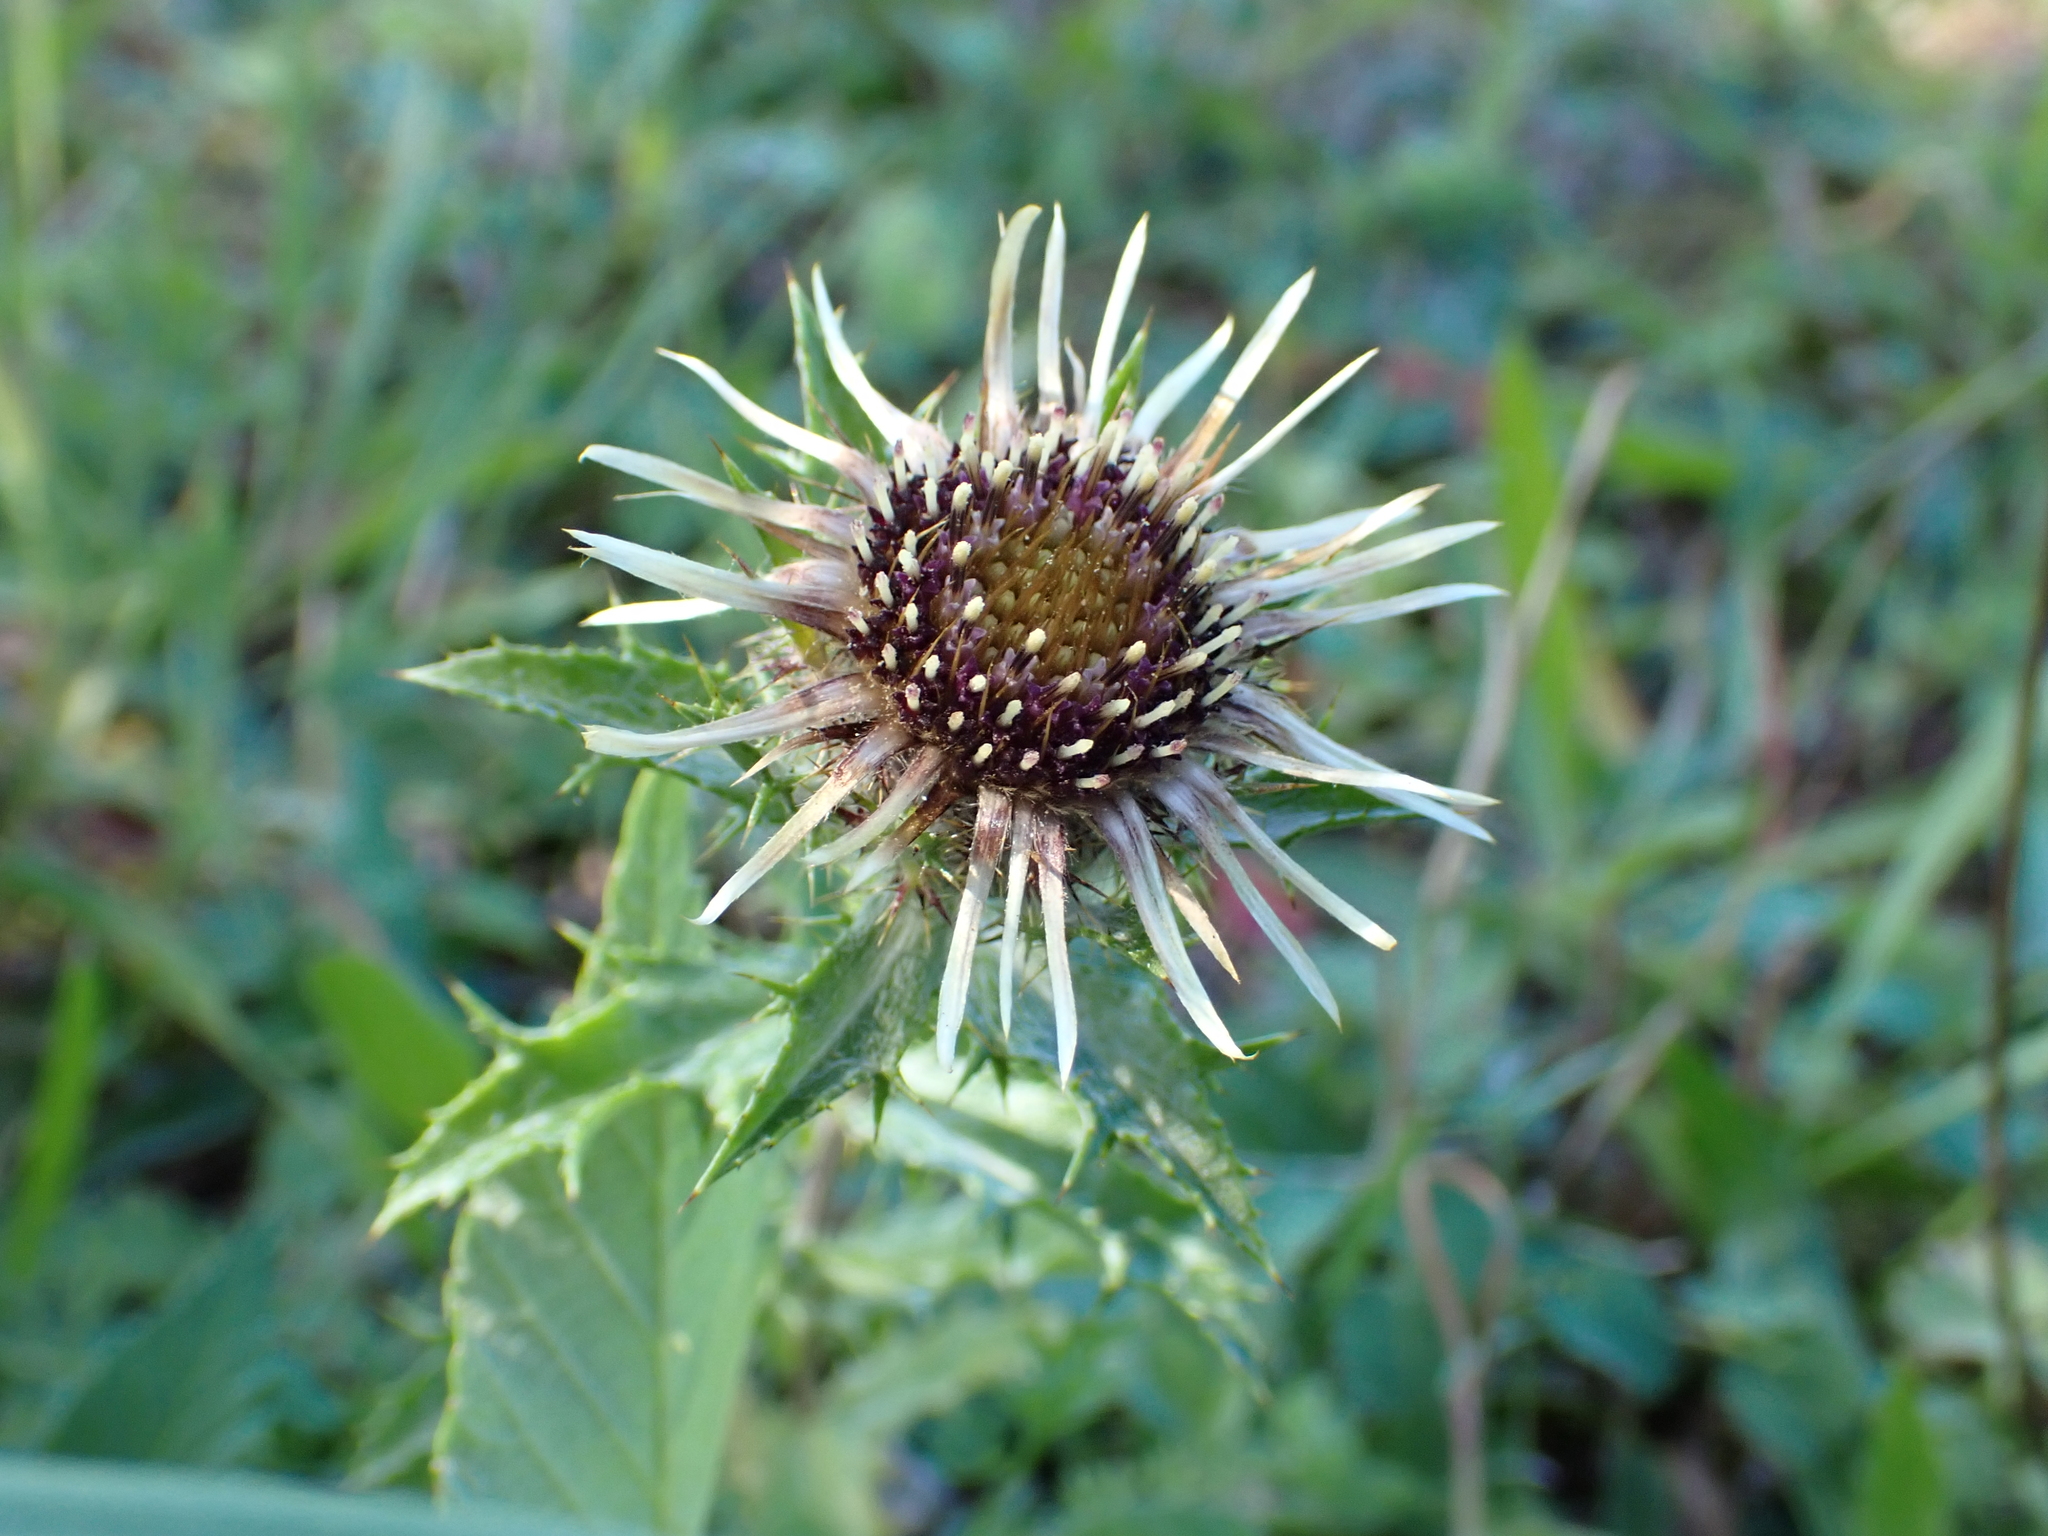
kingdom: Plantae
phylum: Tracheophyta
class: Magnoliopsida
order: Asterales
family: Asteraceae
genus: Carlina
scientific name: Carlina vulgaris
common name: Carline thistle
